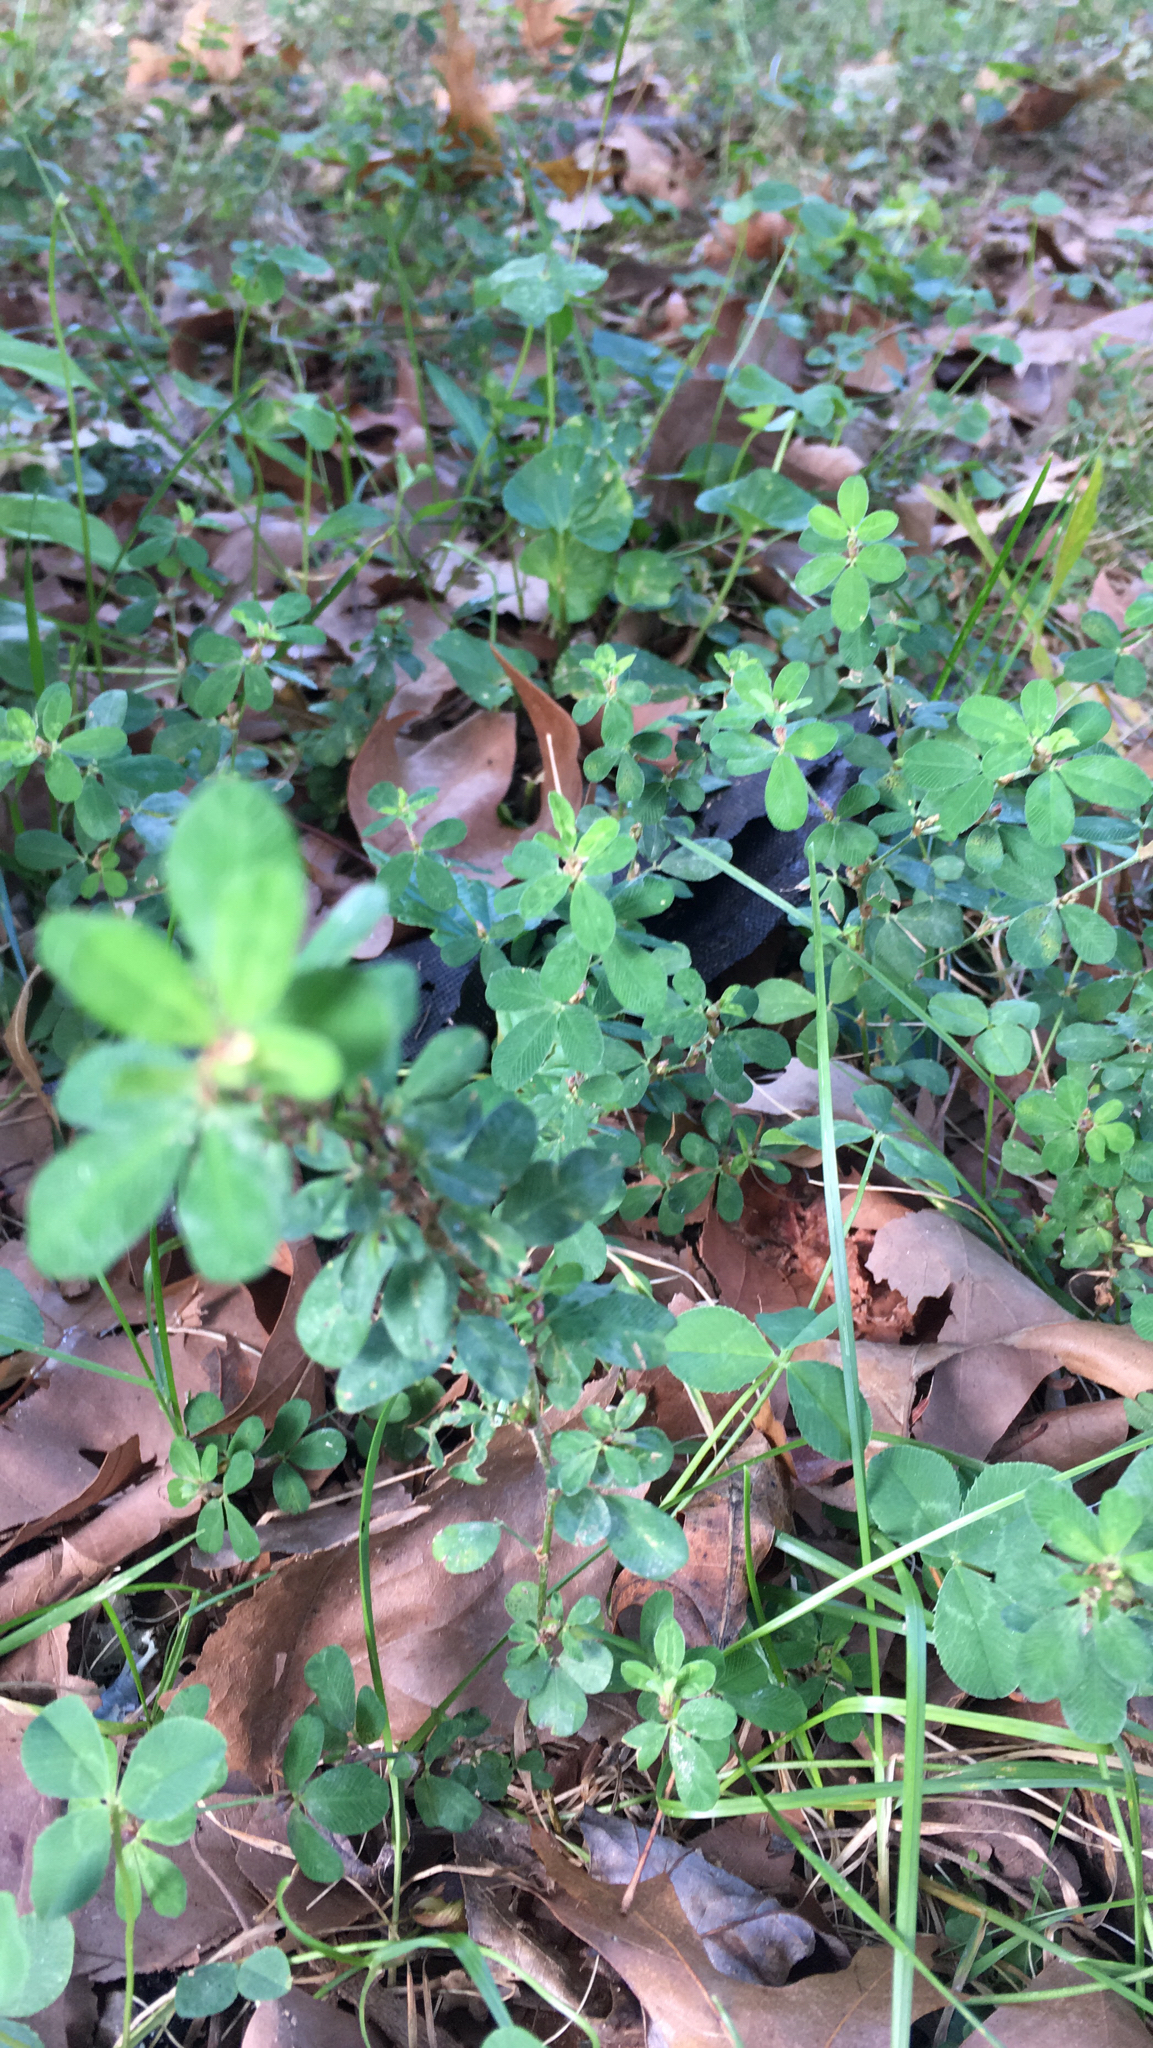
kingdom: Plantae
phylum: Tracheophyta
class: Magnoliopsida
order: Fabales
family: Fabaceae
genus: Kummerowia
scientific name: Kummerowia striata
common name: Japanese clover
